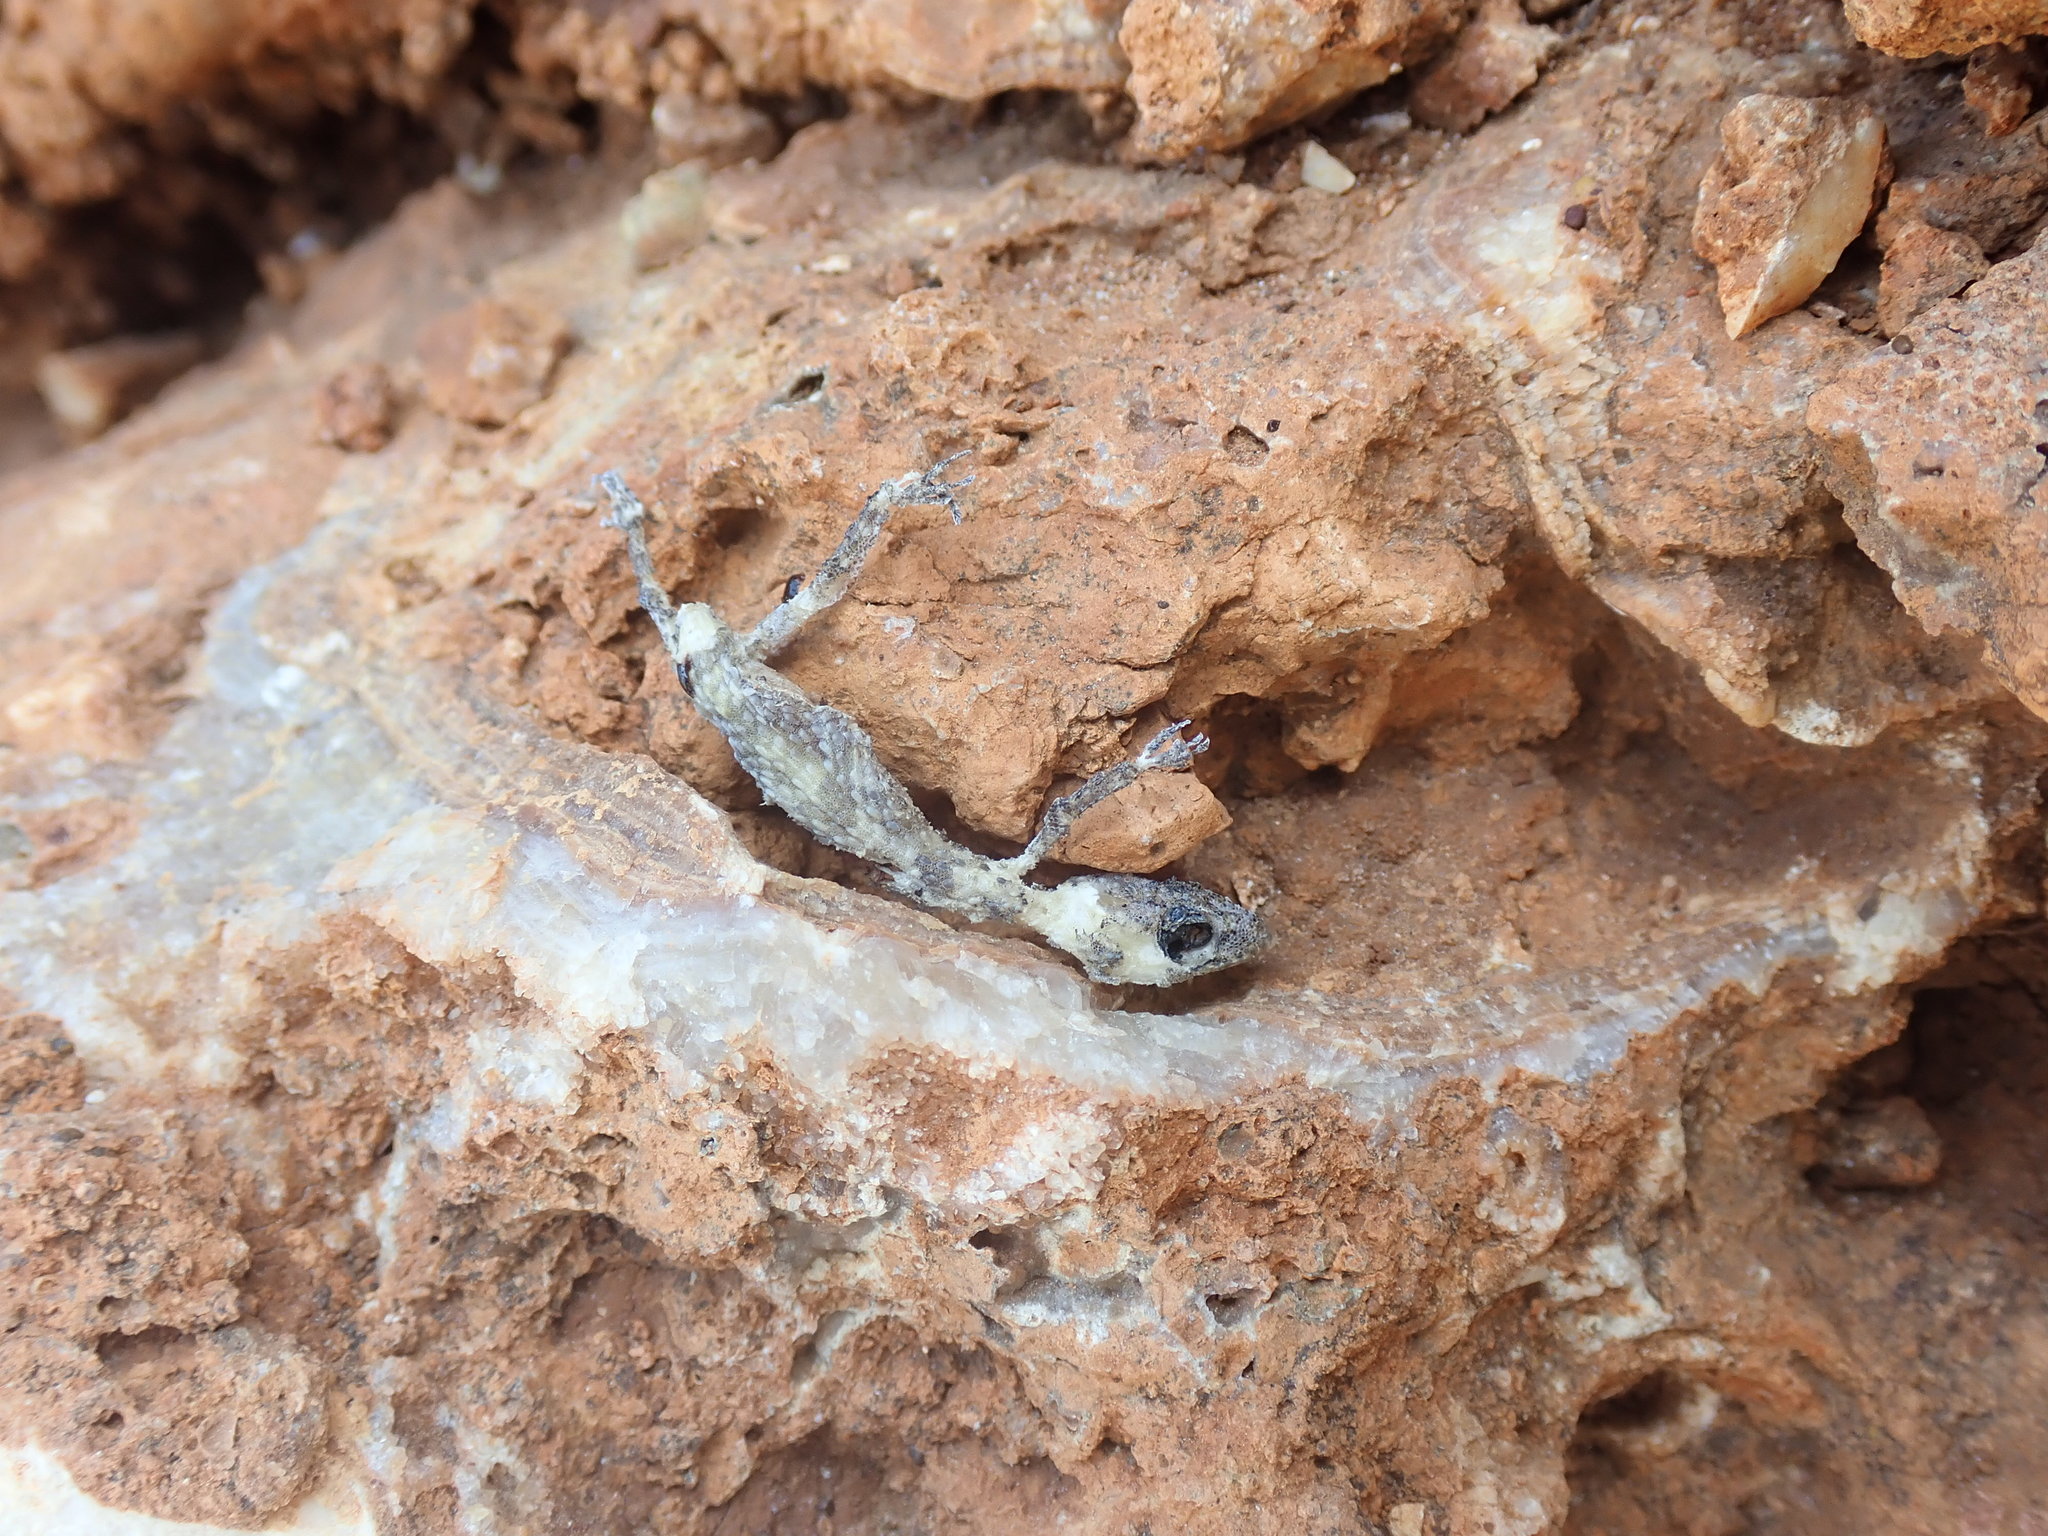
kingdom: Animalia
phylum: Chordata
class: Squamata
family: Gekkonidae
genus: Hemidactylus
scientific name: Hemidactylus turcicus
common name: Turkish gecko
